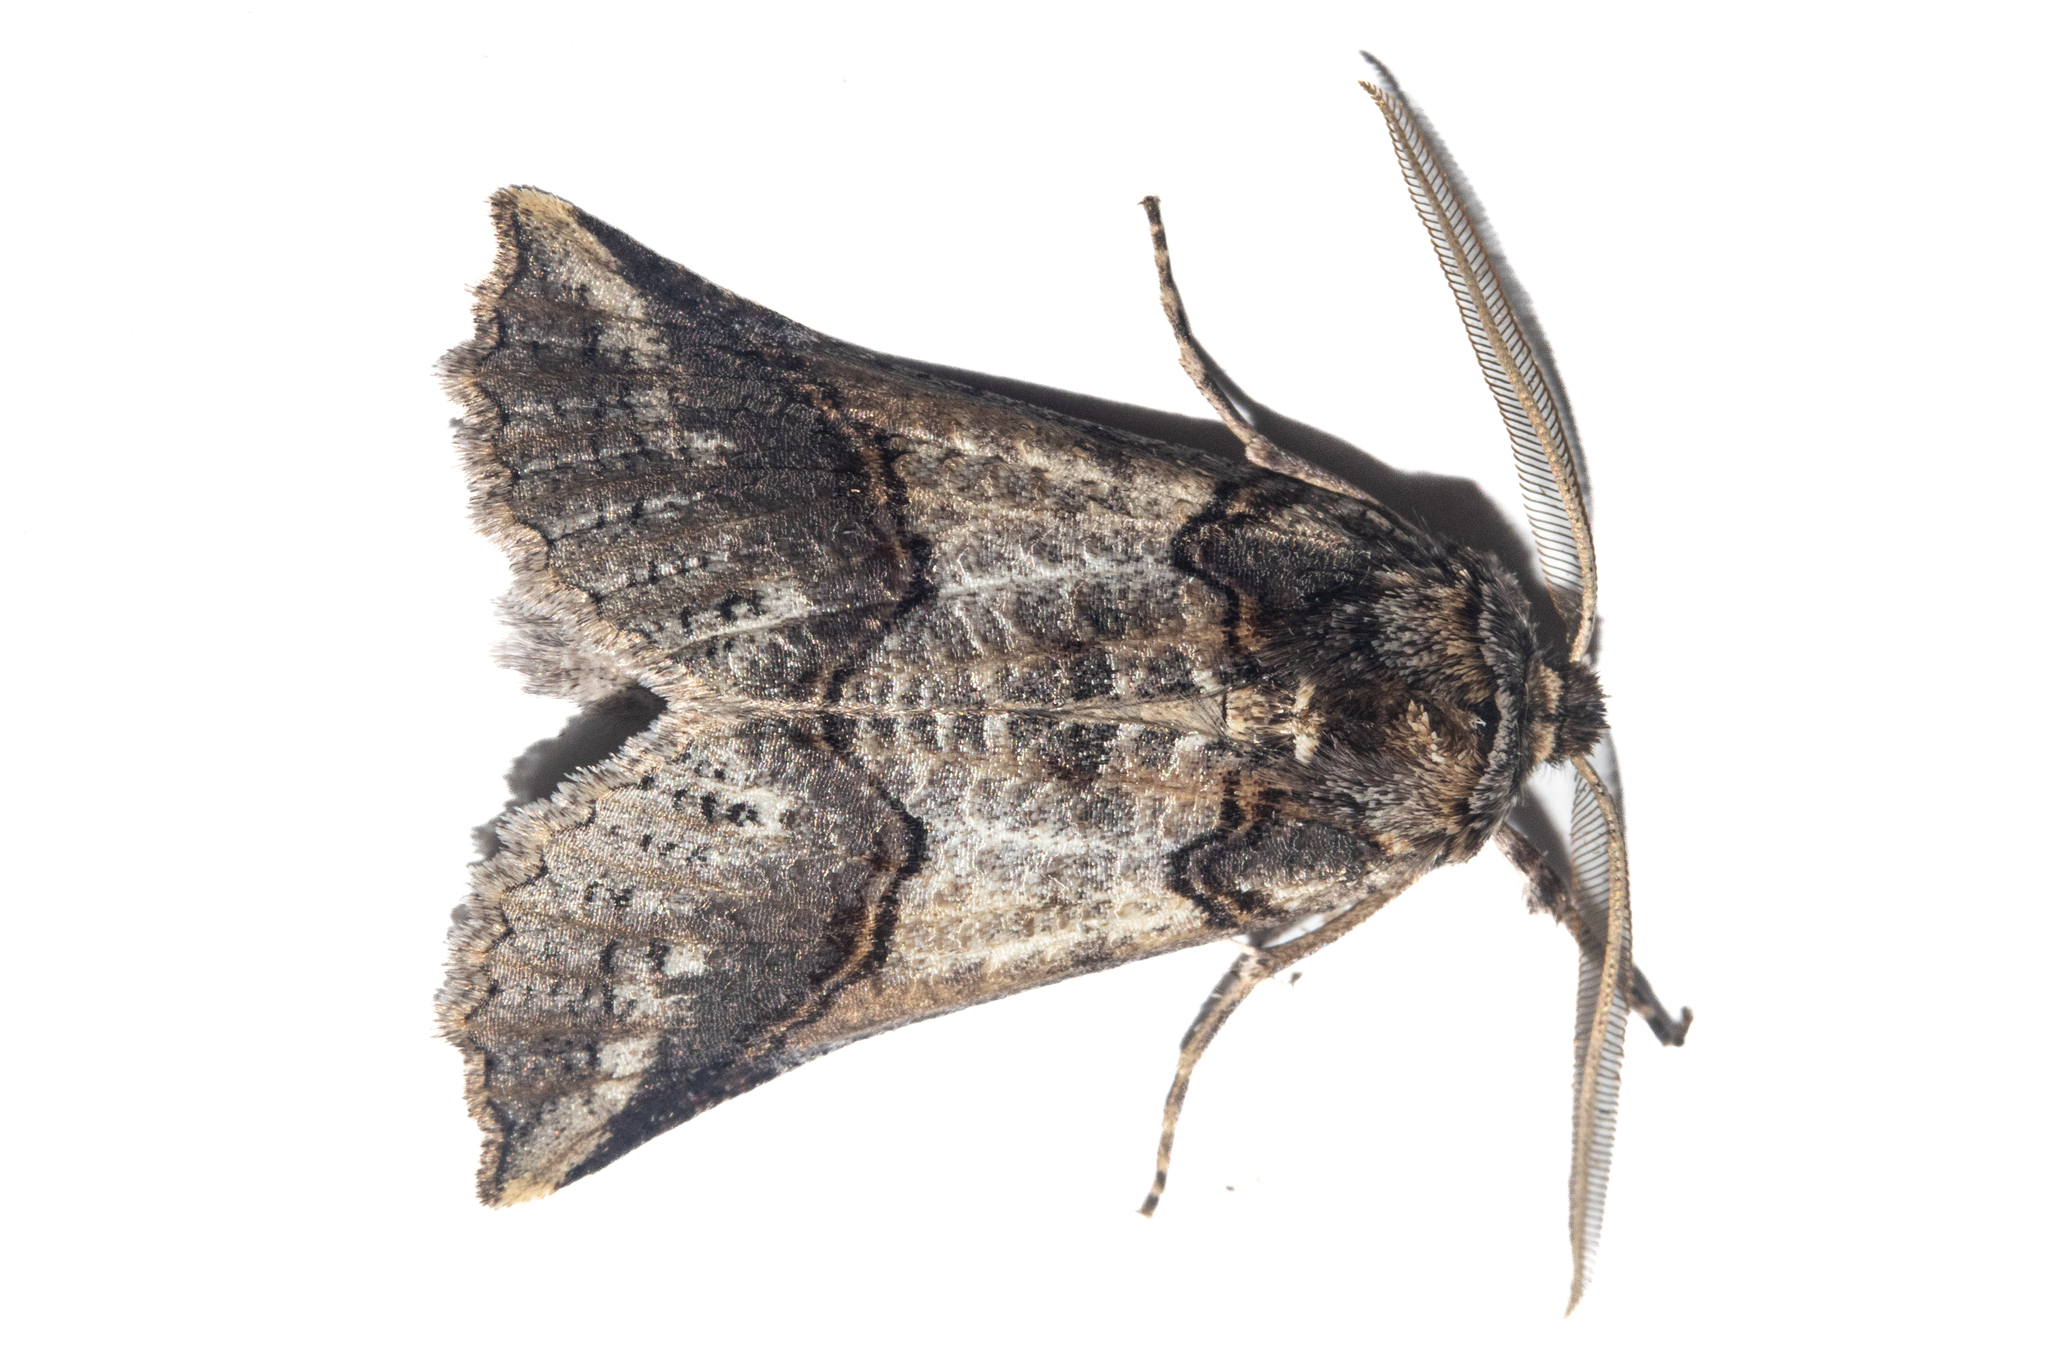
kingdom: Animalia
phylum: Arthropoda
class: Insecta
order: Lepidoptera
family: Geometridae
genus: Declana
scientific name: Declana
